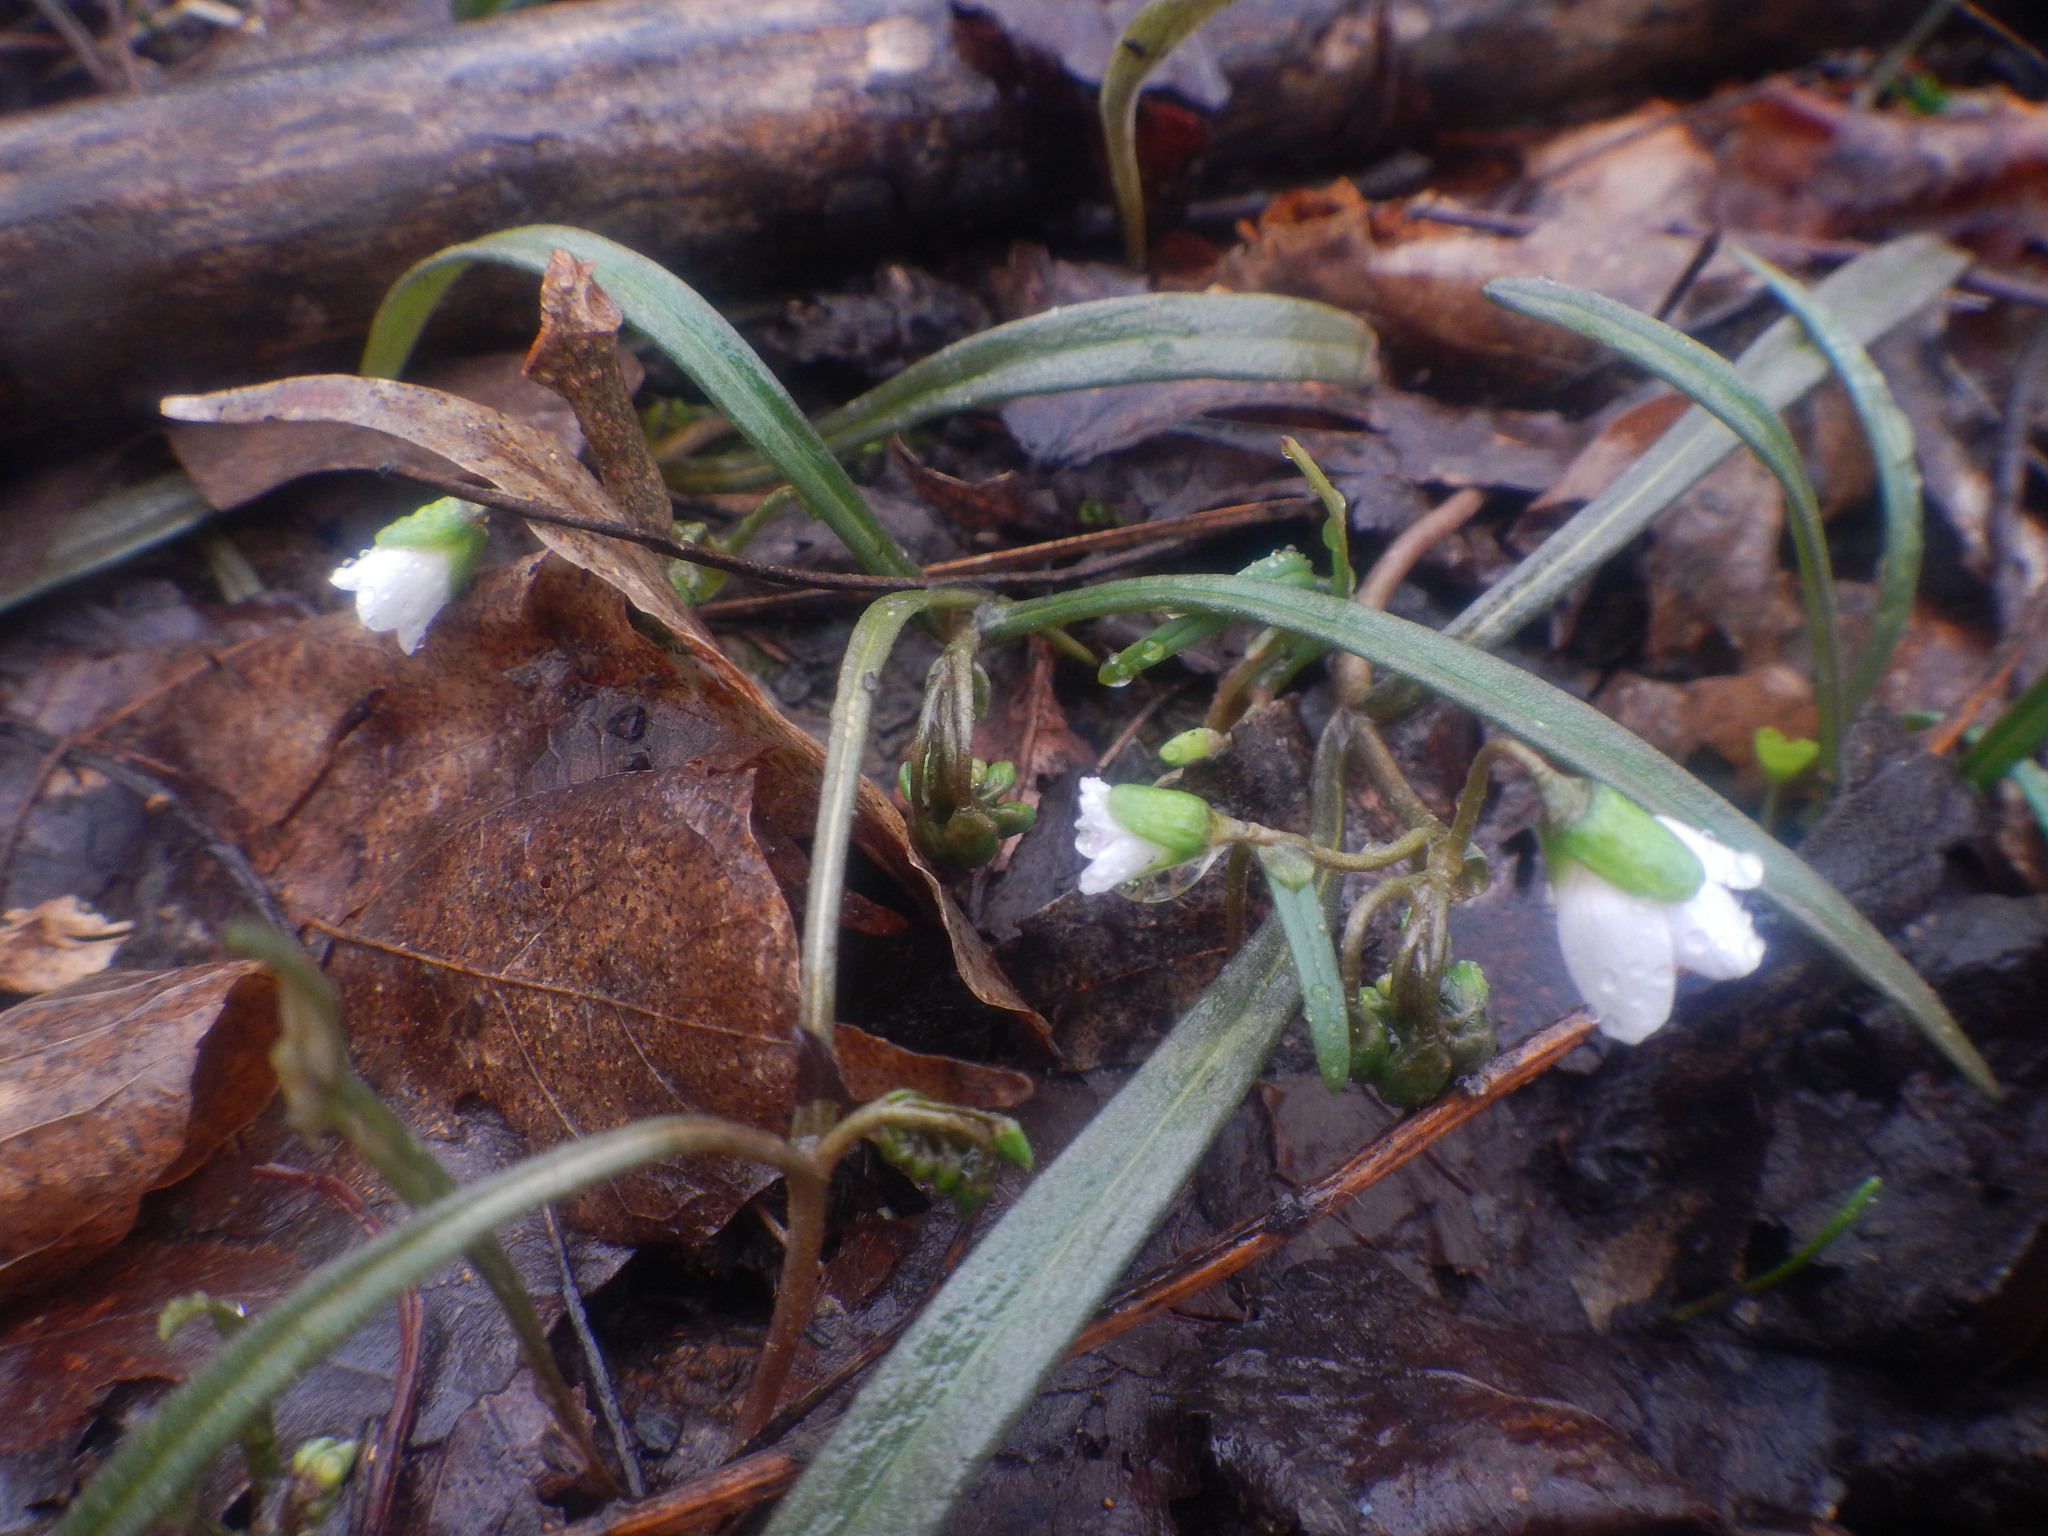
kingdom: Plantae
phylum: Tracheophyta
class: Magnoliopsida
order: Caryophyllales
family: Montiaceae
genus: Claytonia
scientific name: Claytonia virginica
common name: Virginia springbeauty
